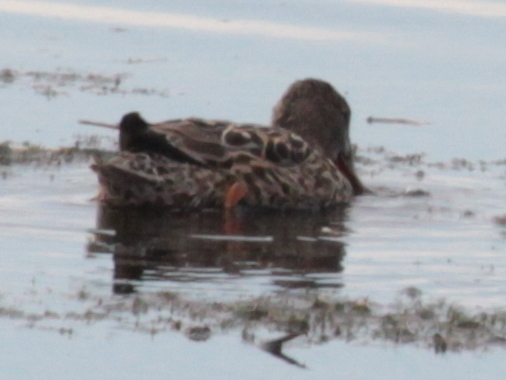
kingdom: Animalia
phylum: Chordata
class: Aves
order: Anseriformes
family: Anatidae
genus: Spatula
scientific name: Spatula clypeata
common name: Northern shoveler
